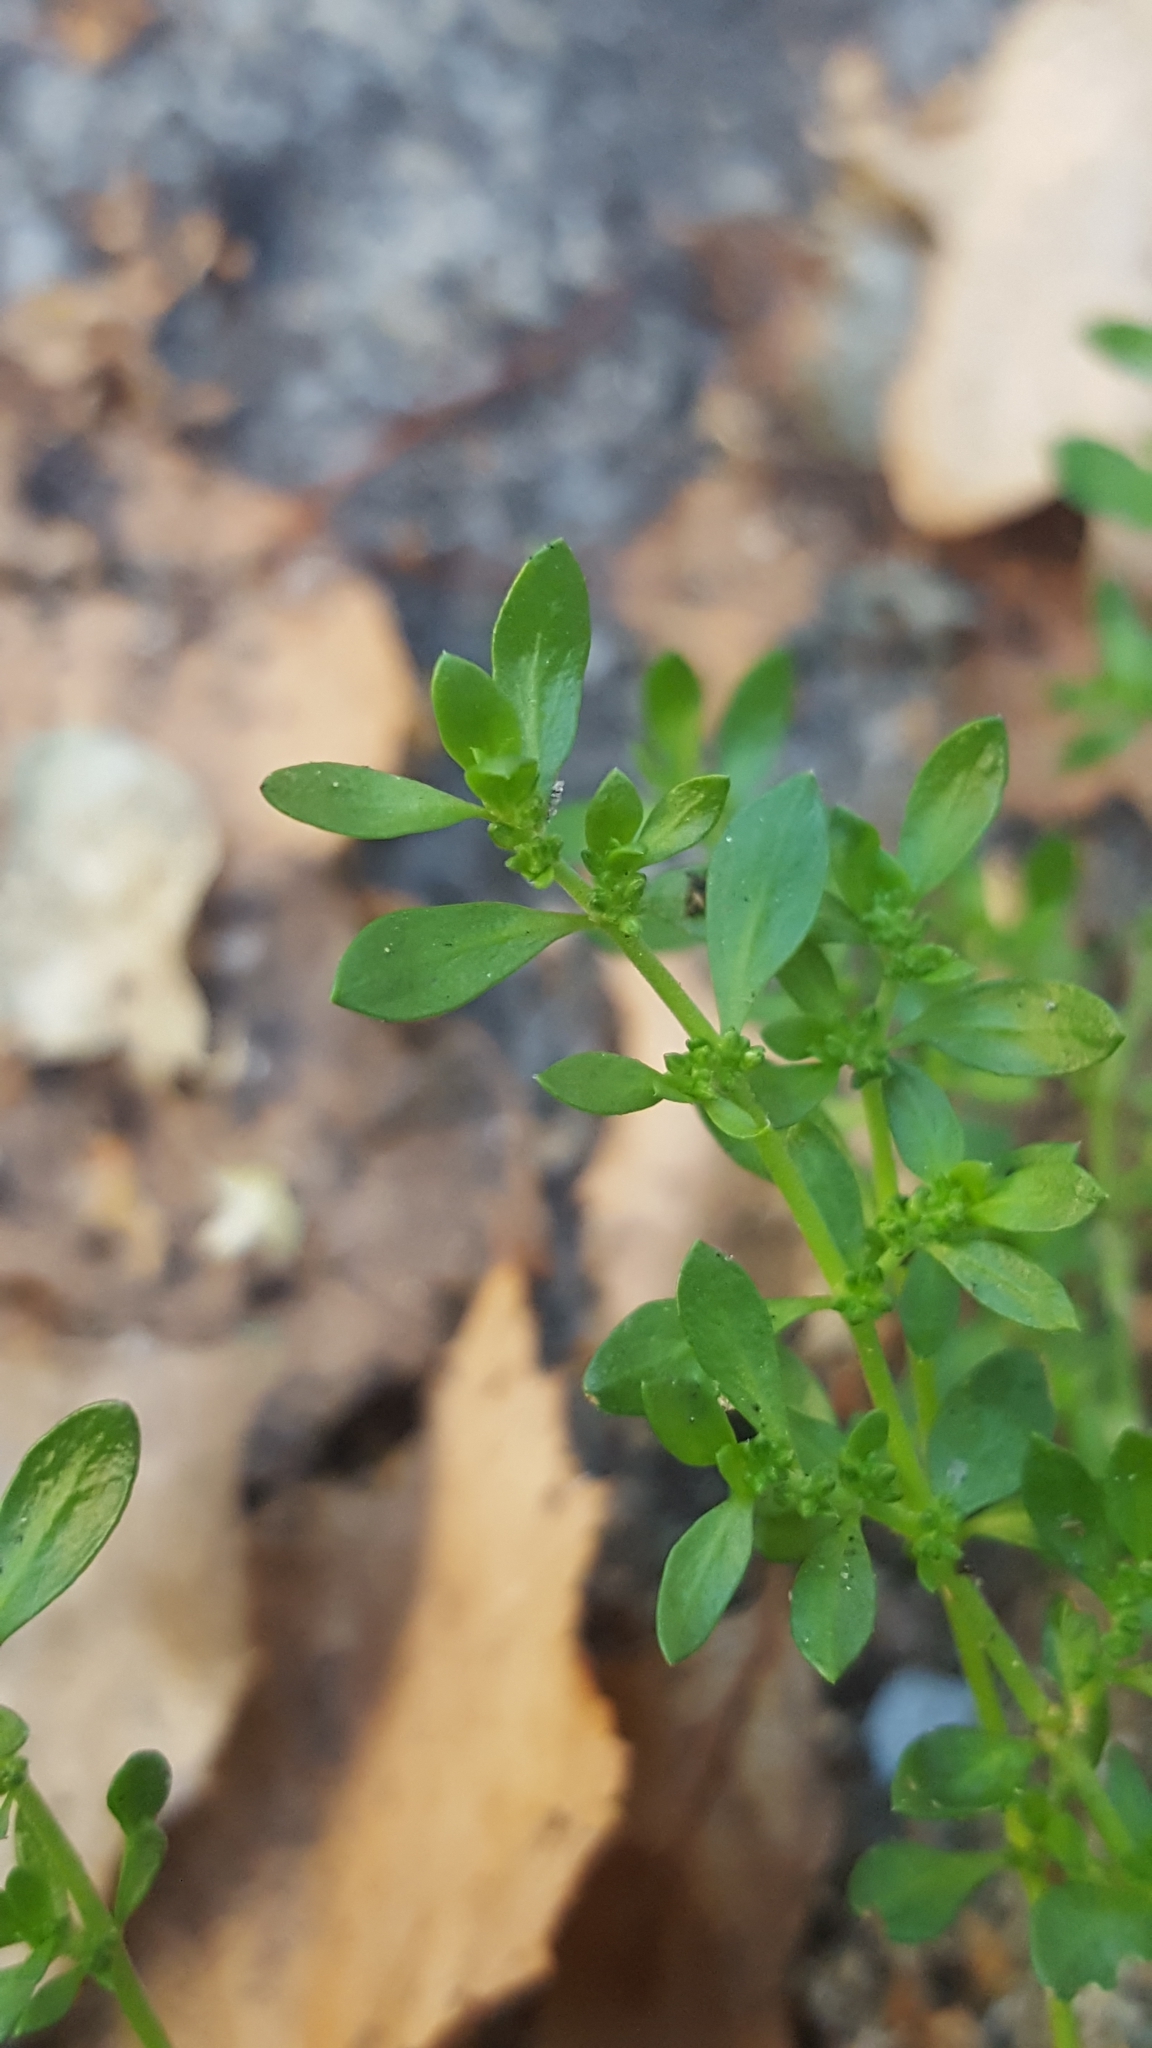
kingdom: Plantae
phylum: Tracheophyta
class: Magnoliopsida
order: Caryophyllales
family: Caryophyllaceae
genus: Herniaria
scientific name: Herniaria glabra
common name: Smooth rupturewort
